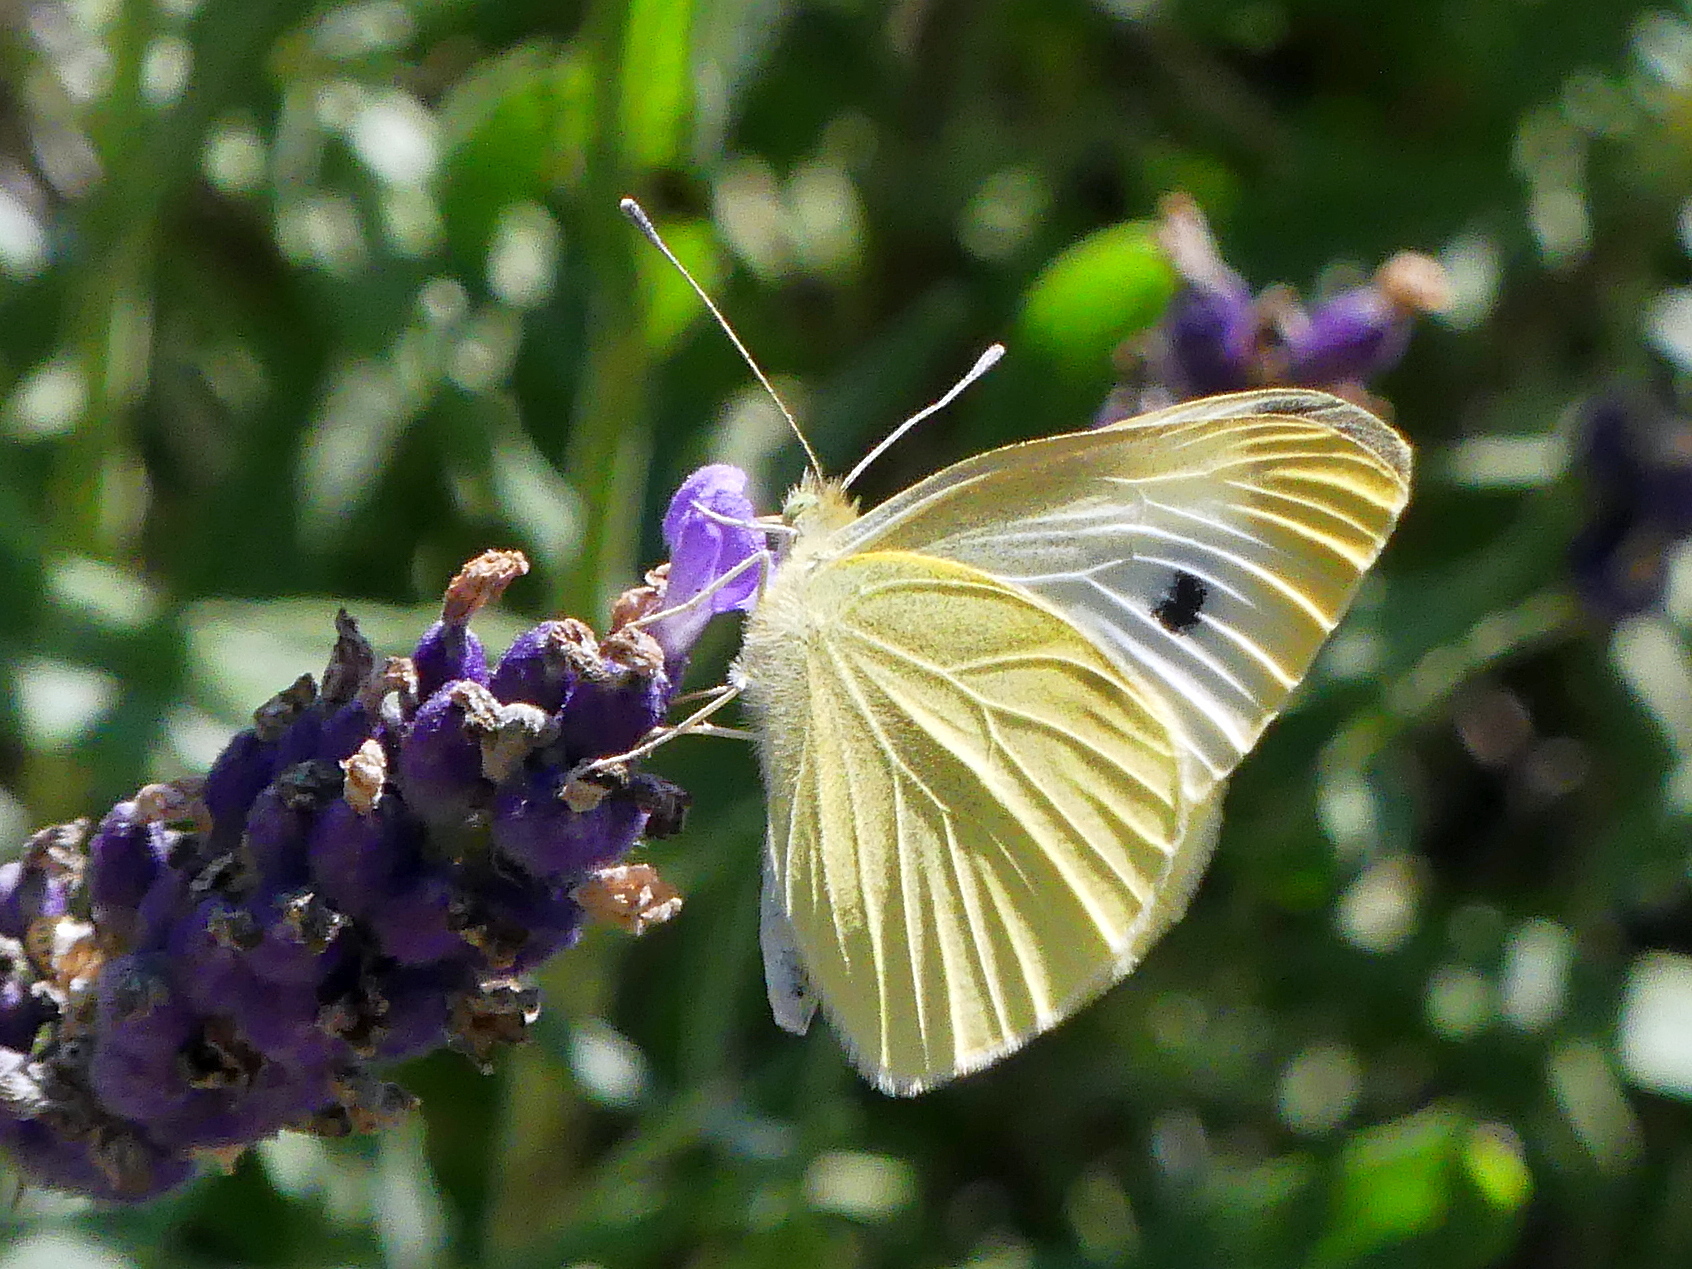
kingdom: Animalia
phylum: Arthropoda
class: Insecta
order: Lepidoptera
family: Pieridae
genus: Pieris
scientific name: Pieris rapae
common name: Small white
